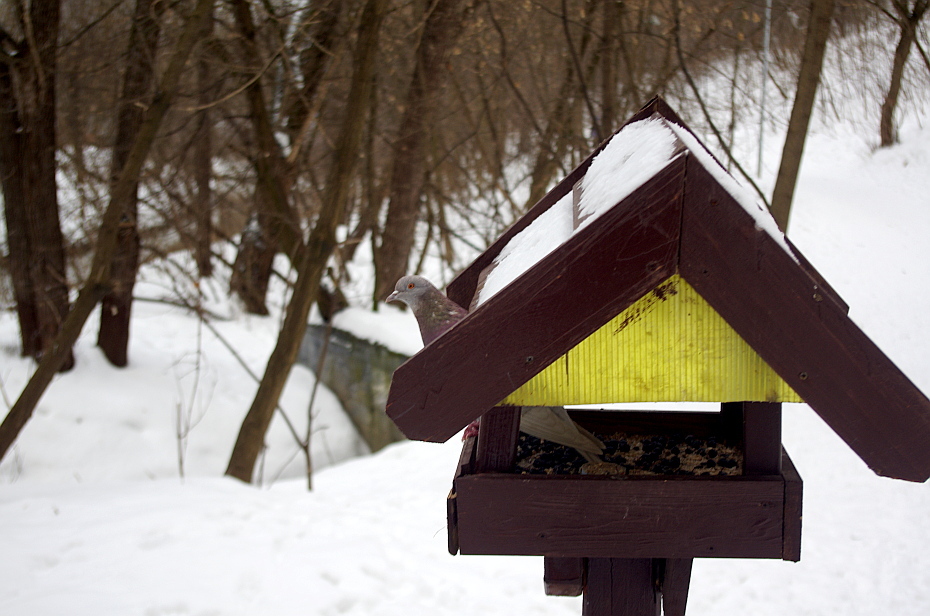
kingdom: Animalia
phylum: Chordata
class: Aves
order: Columbiformes
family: Columbidae
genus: Columba
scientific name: Columba livia
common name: Rock pigeon
